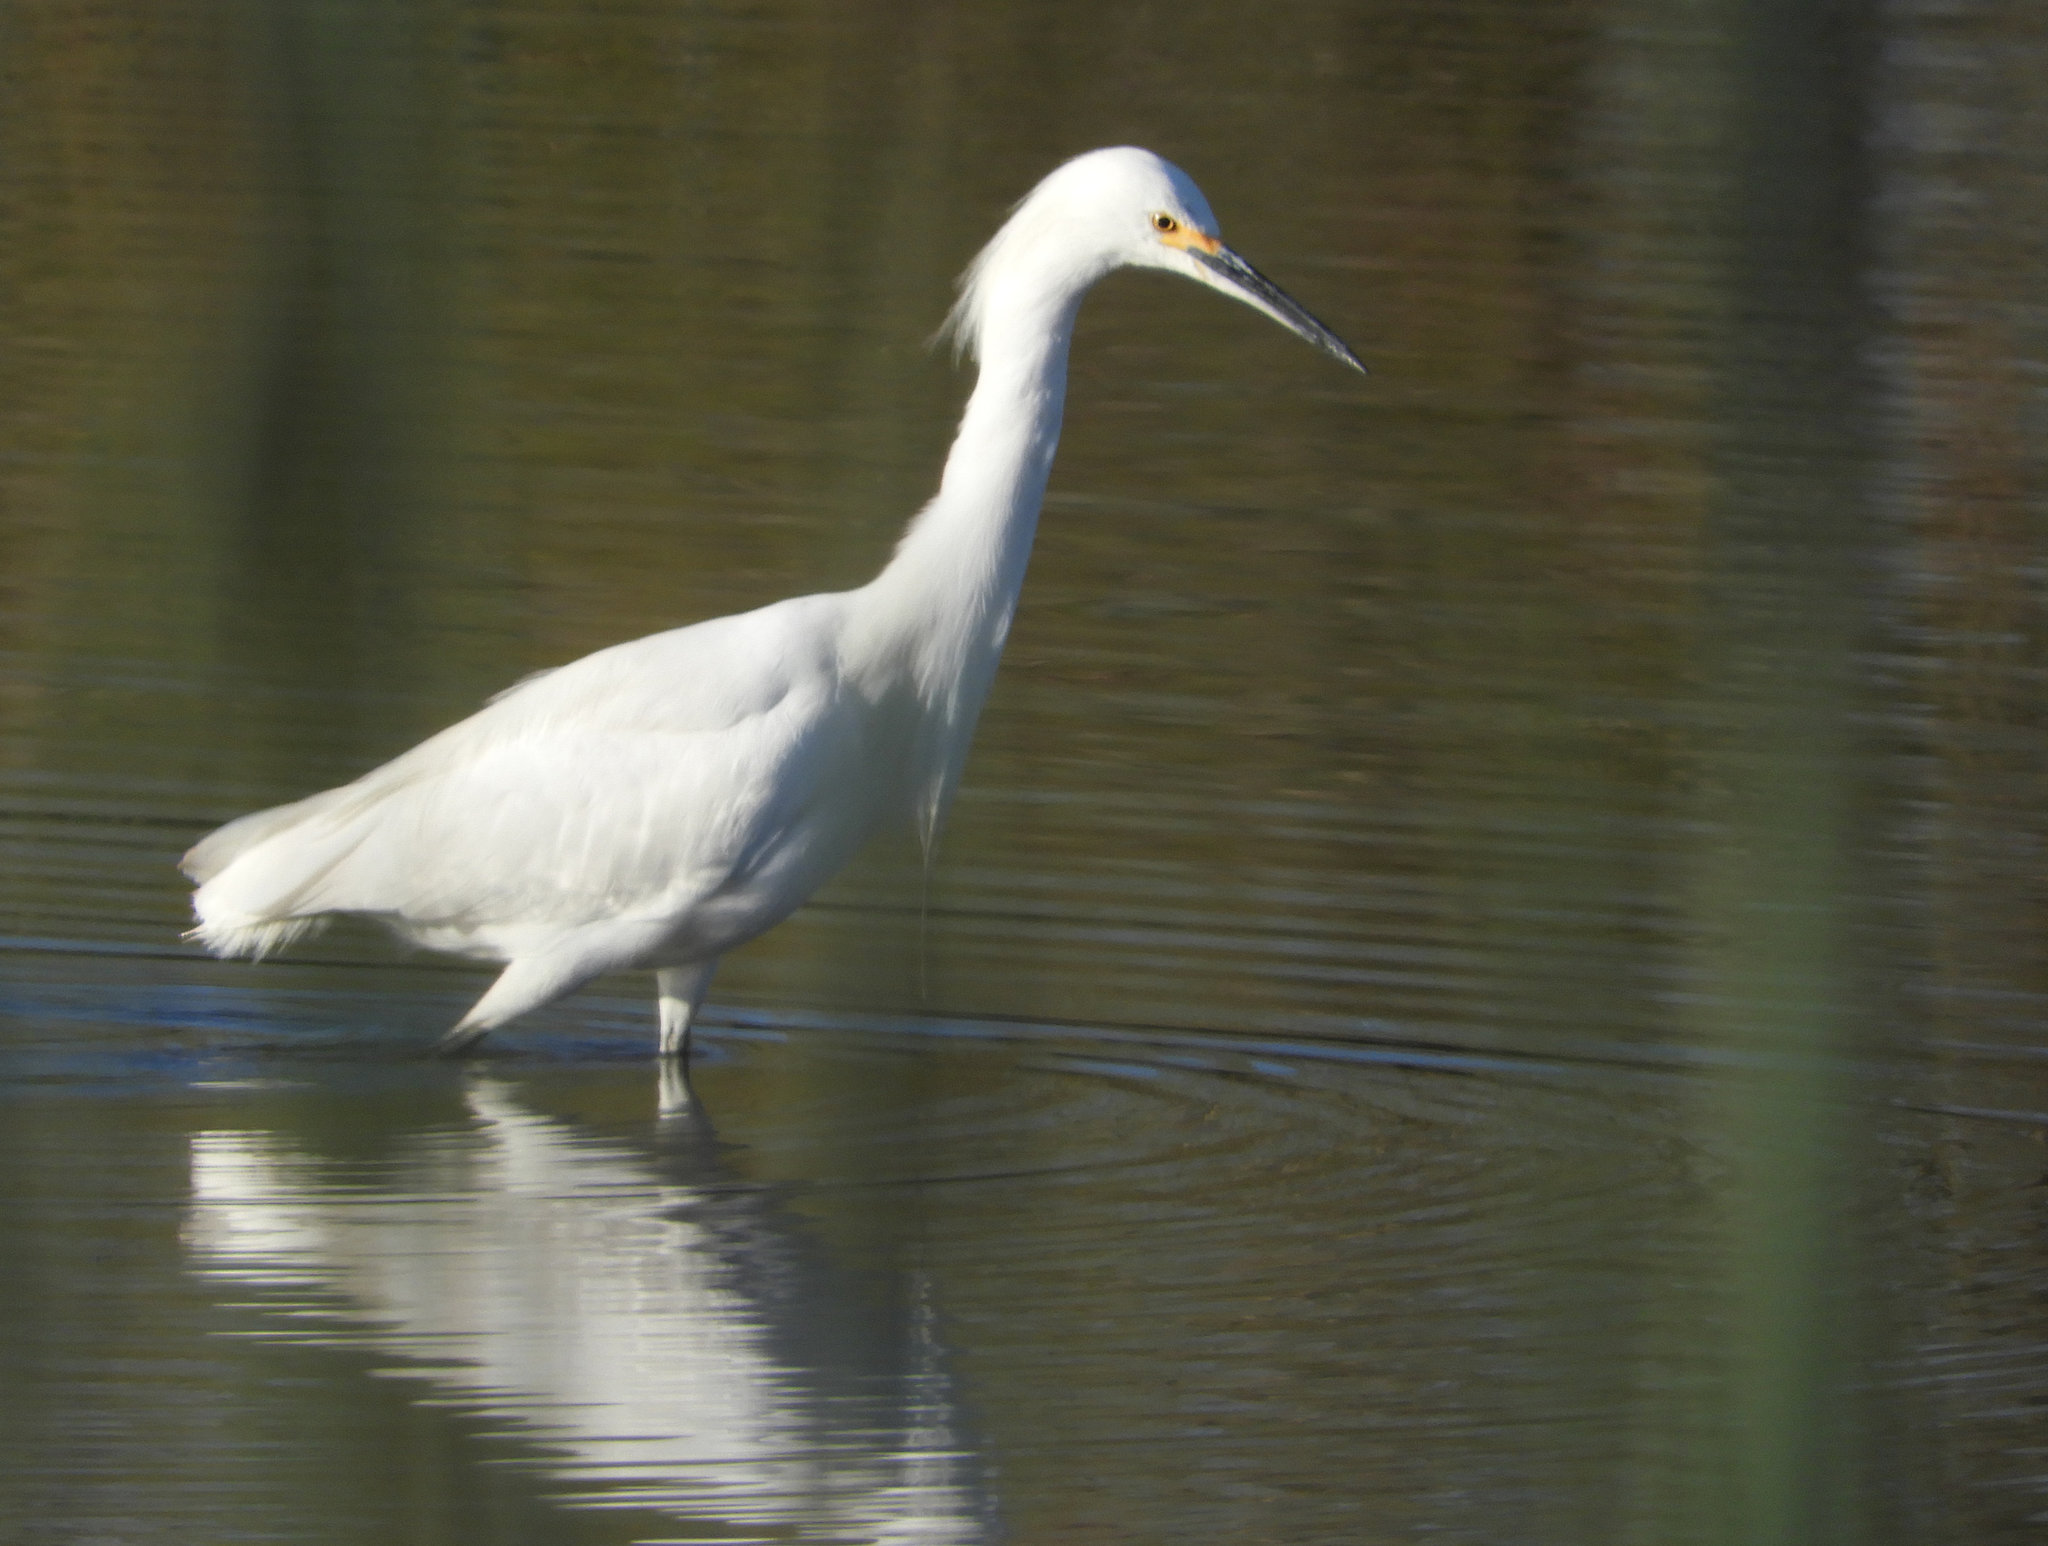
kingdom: Animalia
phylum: Chordata
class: Aves
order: Pelecaniformes
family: Ardeidae
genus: Egretta
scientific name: Egretta thula
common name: Snowy egret
